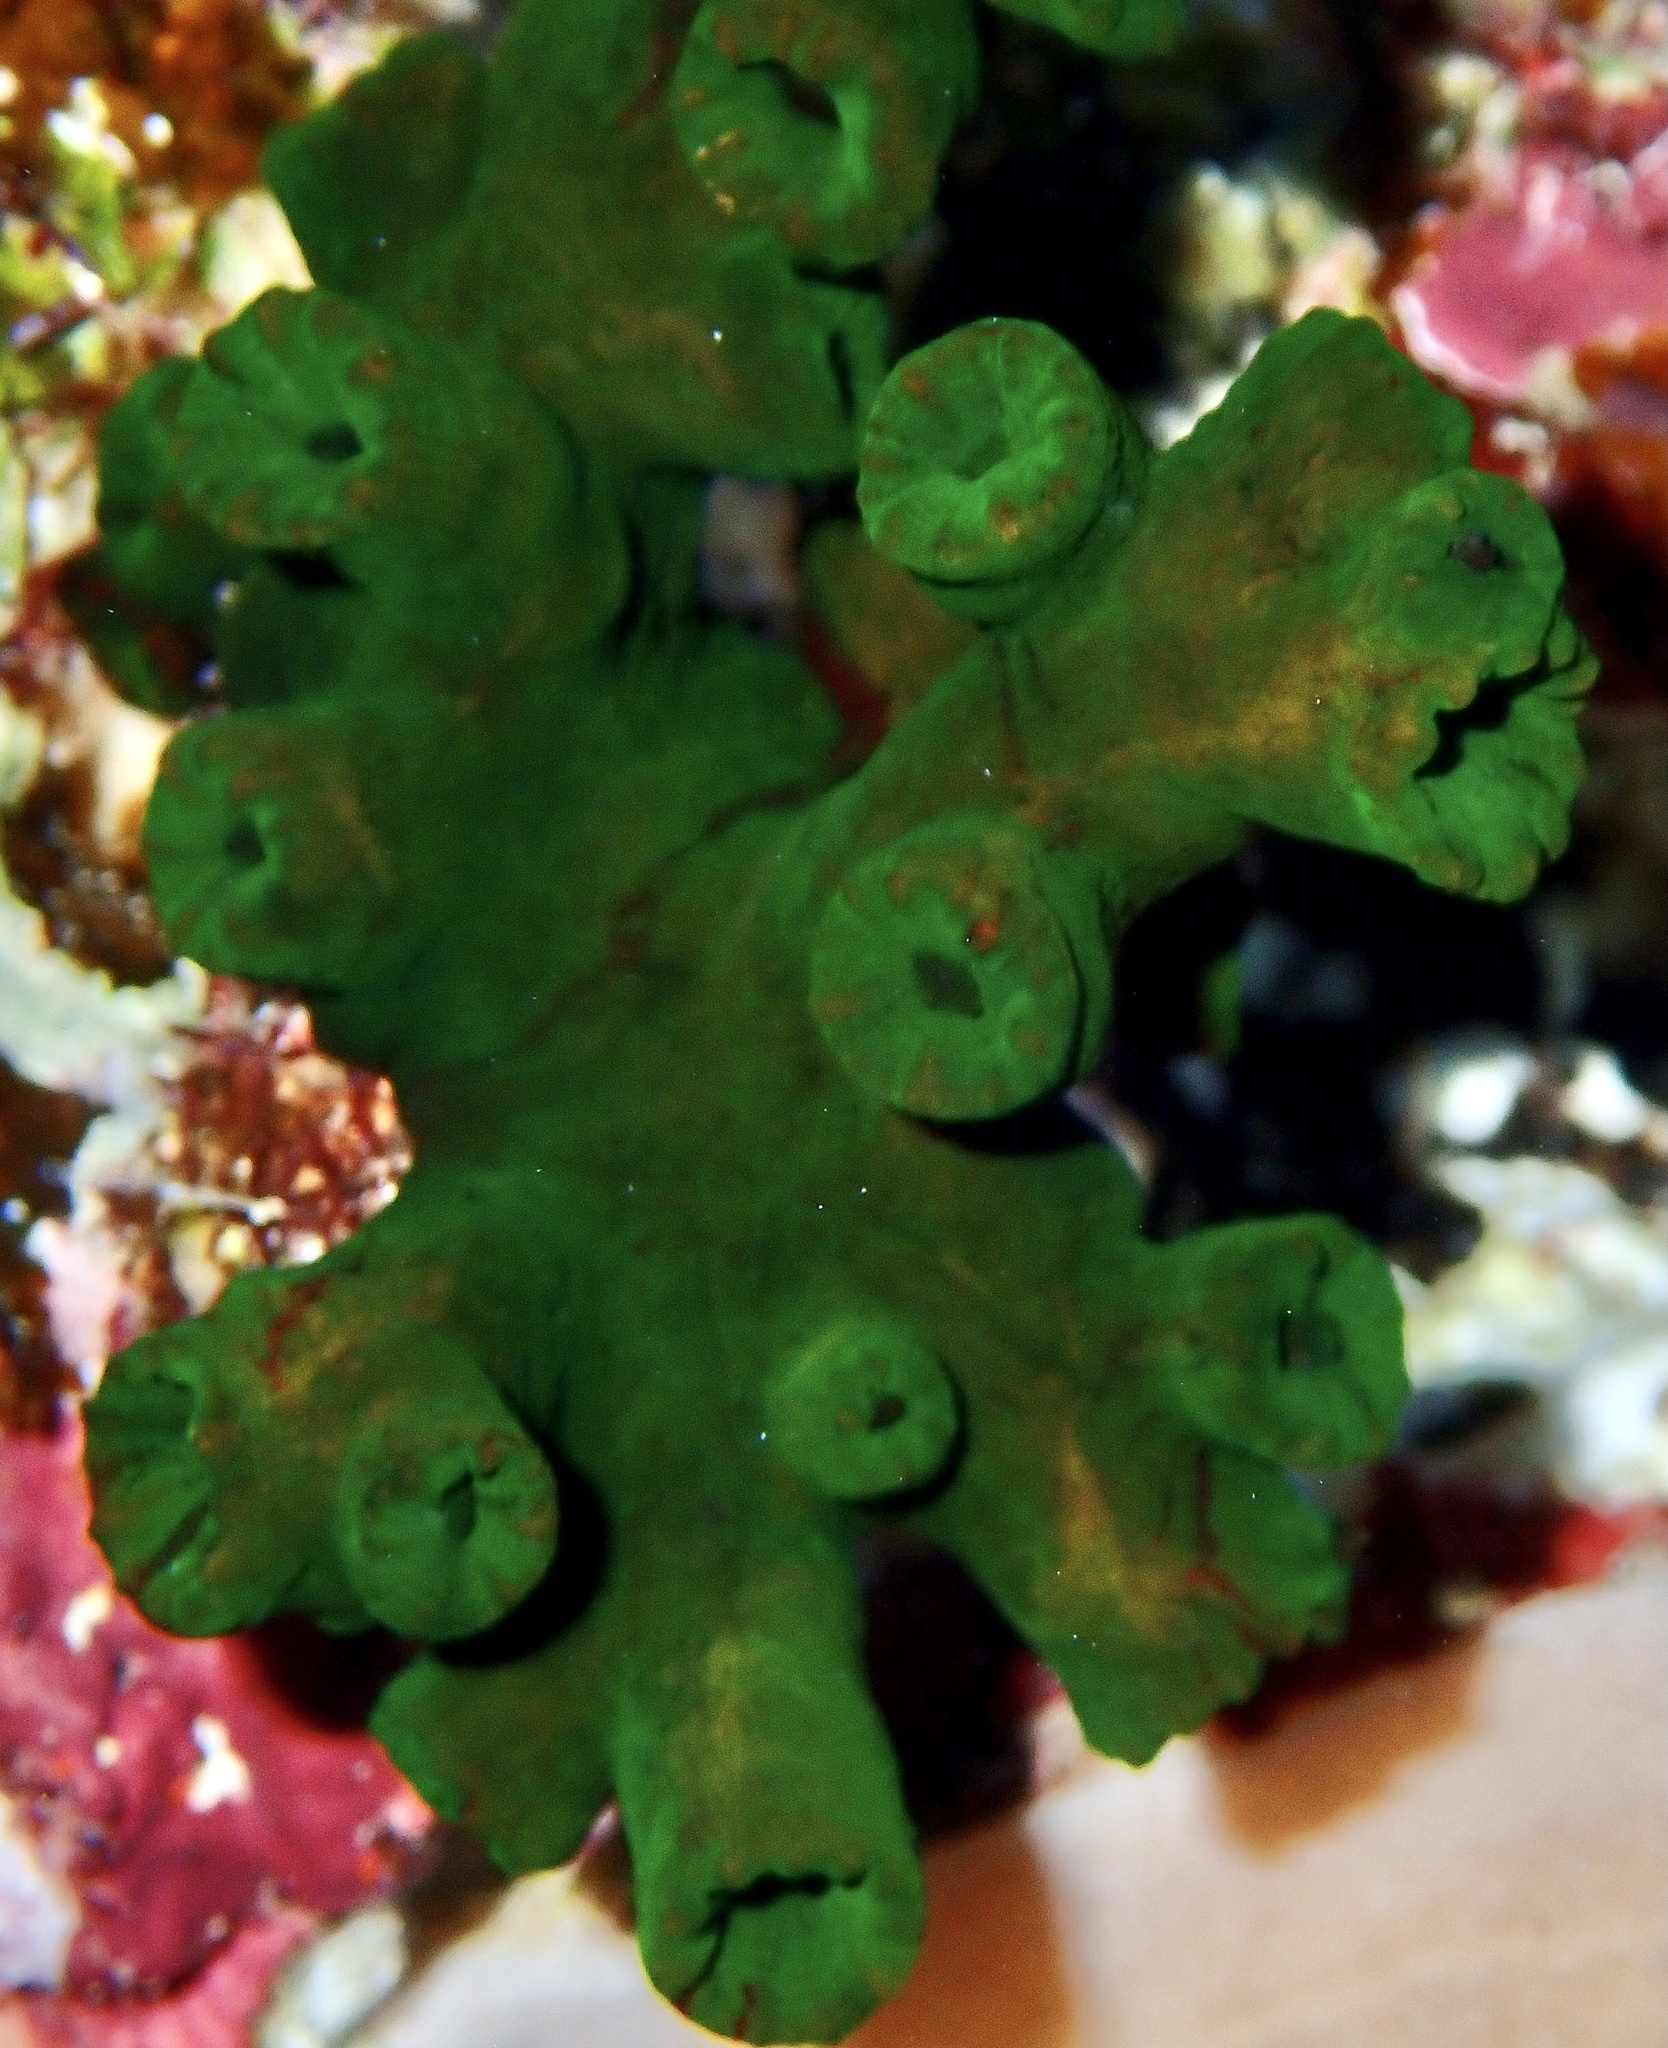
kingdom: Animalia
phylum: Cnidaria
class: Anthozoa
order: Scleractinia
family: Dendrophylliidae
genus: Tubastraea
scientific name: Tubastraea micranthus
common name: Black sun coral
